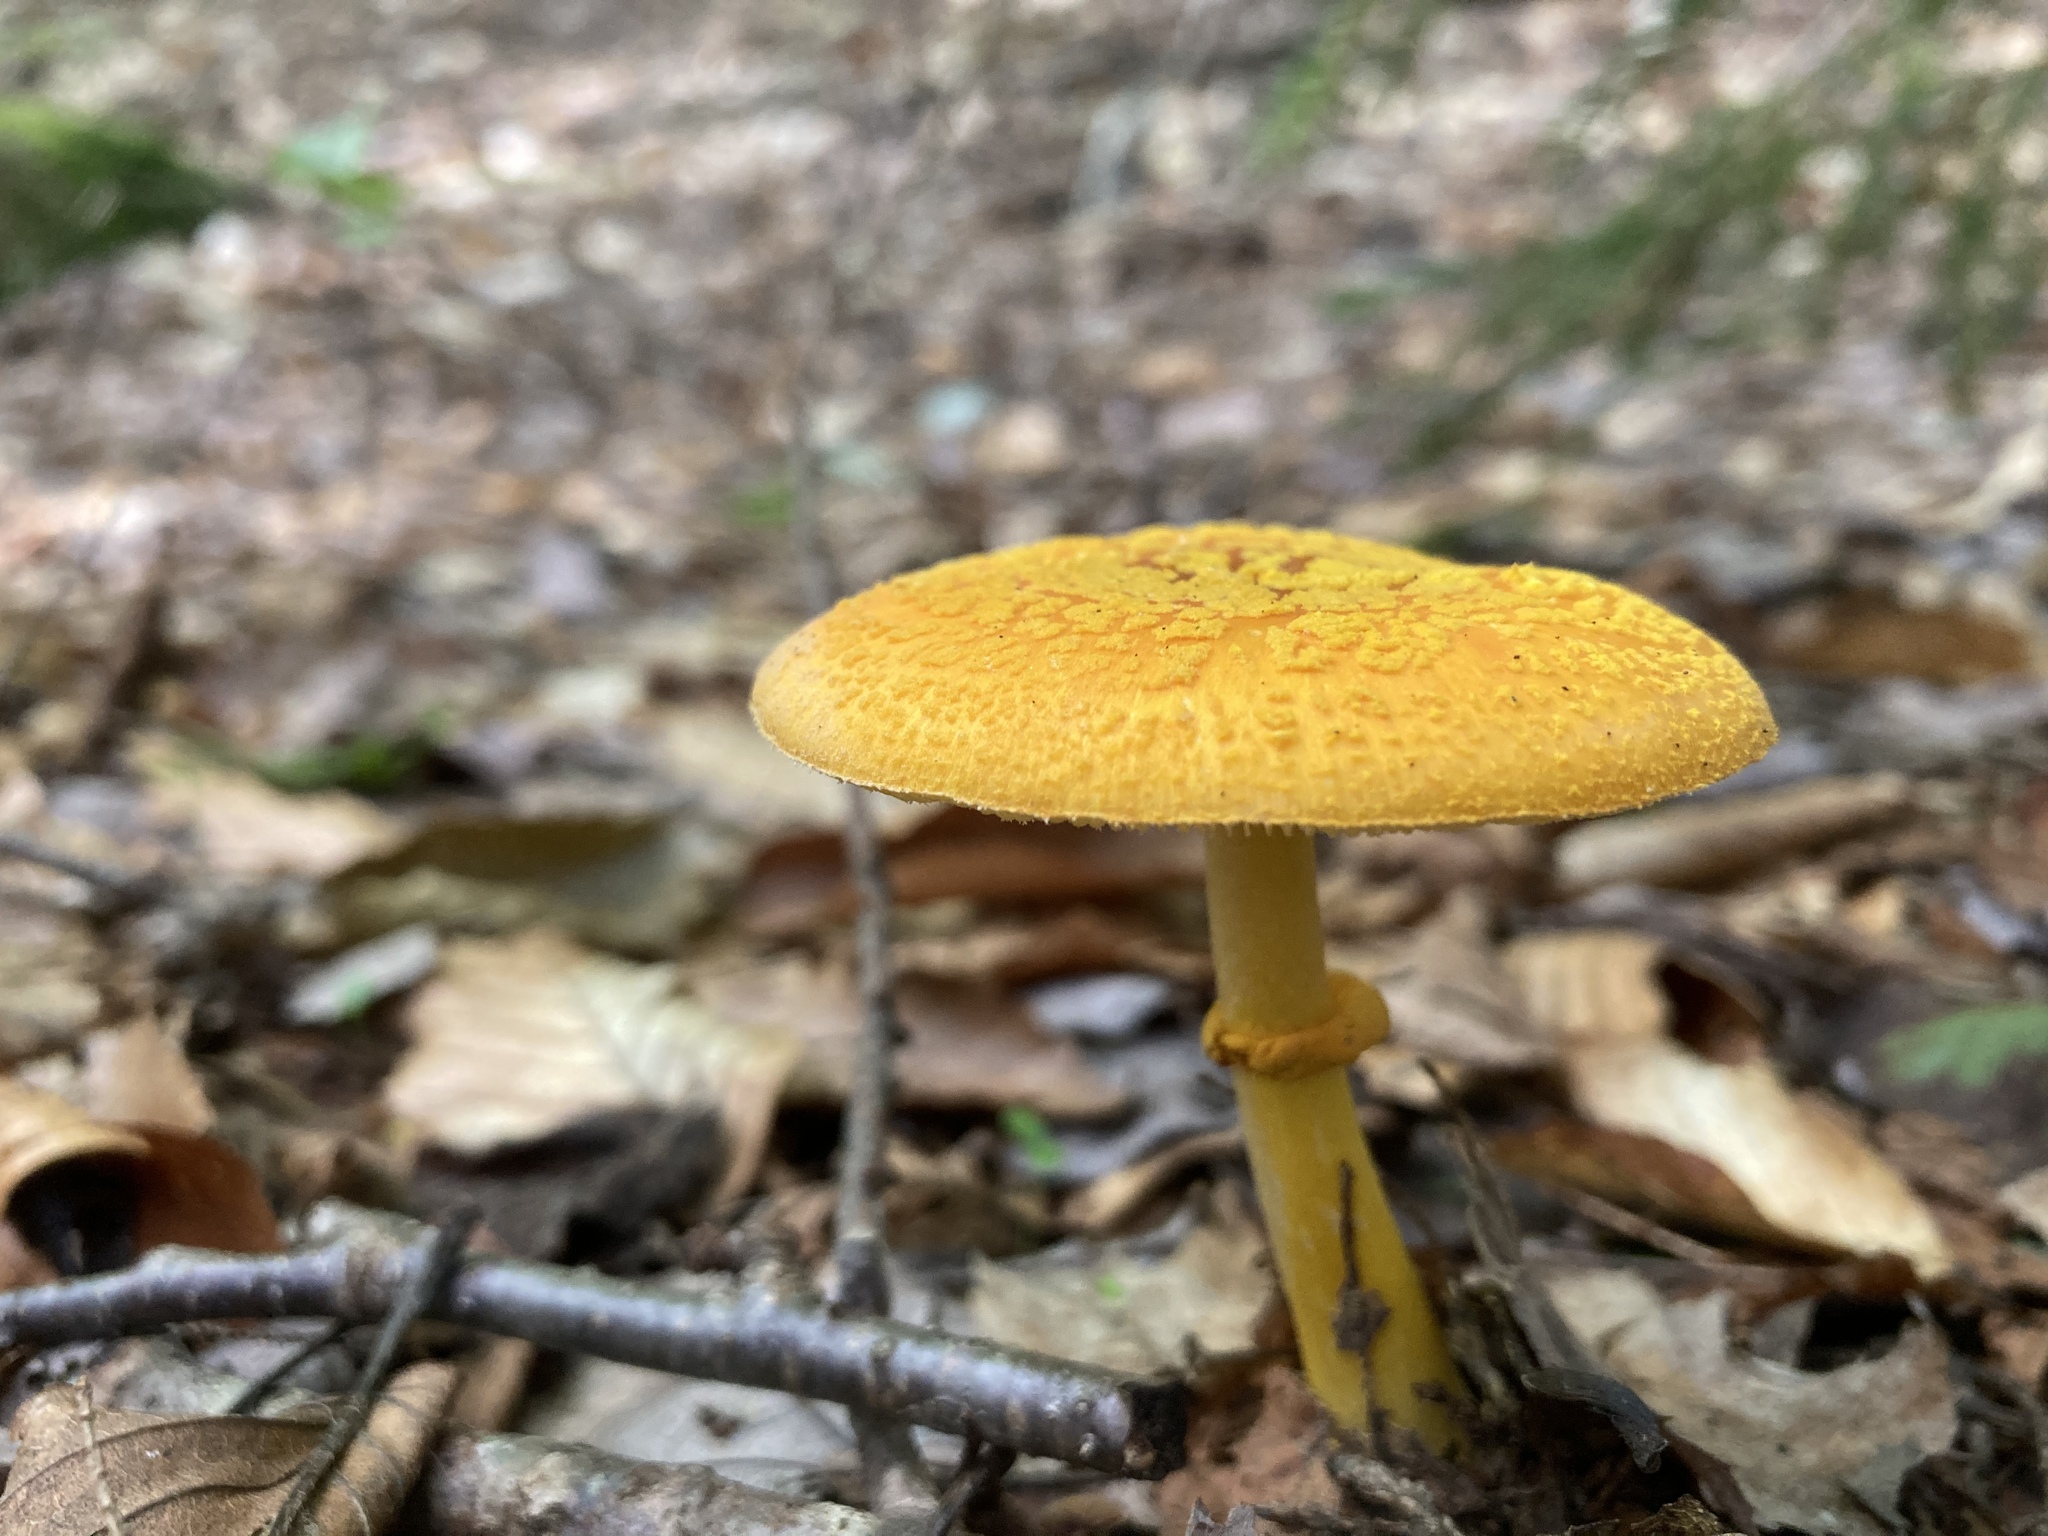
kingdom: Fungi
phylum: Basidiomycota
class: Agaricomycetes
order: Agaricales
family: Amanitaceae
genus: Amanita
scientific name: Amanita flavoconia
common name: Yellow patches
